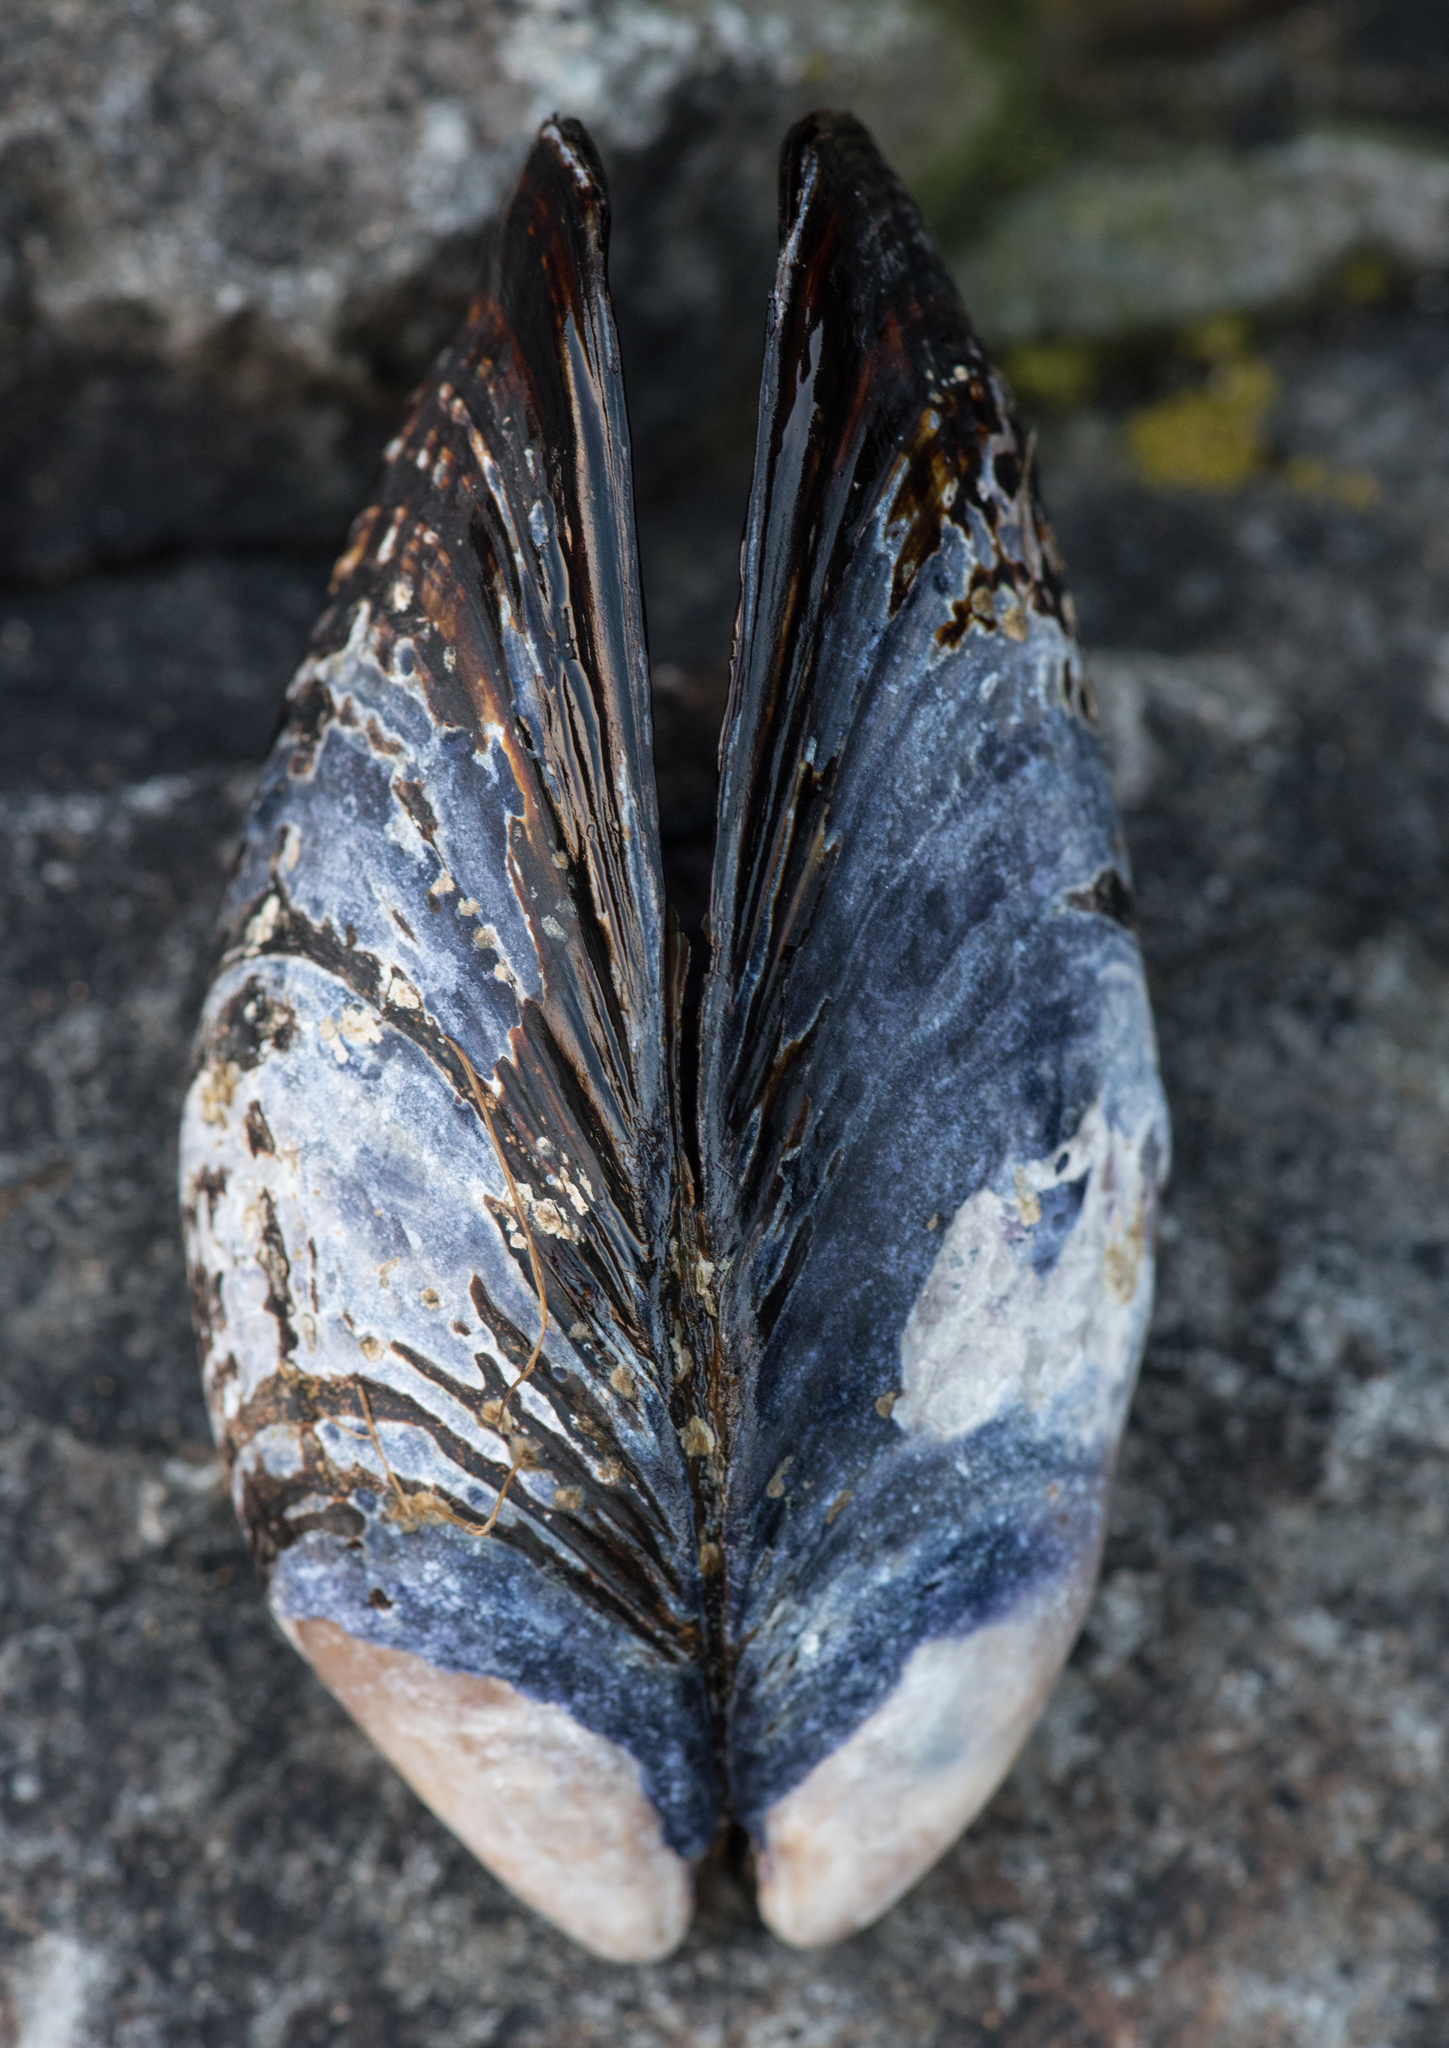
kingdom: Animalia
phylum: Mollusca
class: Bivalvia
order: Mytilida
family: Mytilidae
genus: Mytilus
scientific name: Mytilus californianus
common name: California mussel
